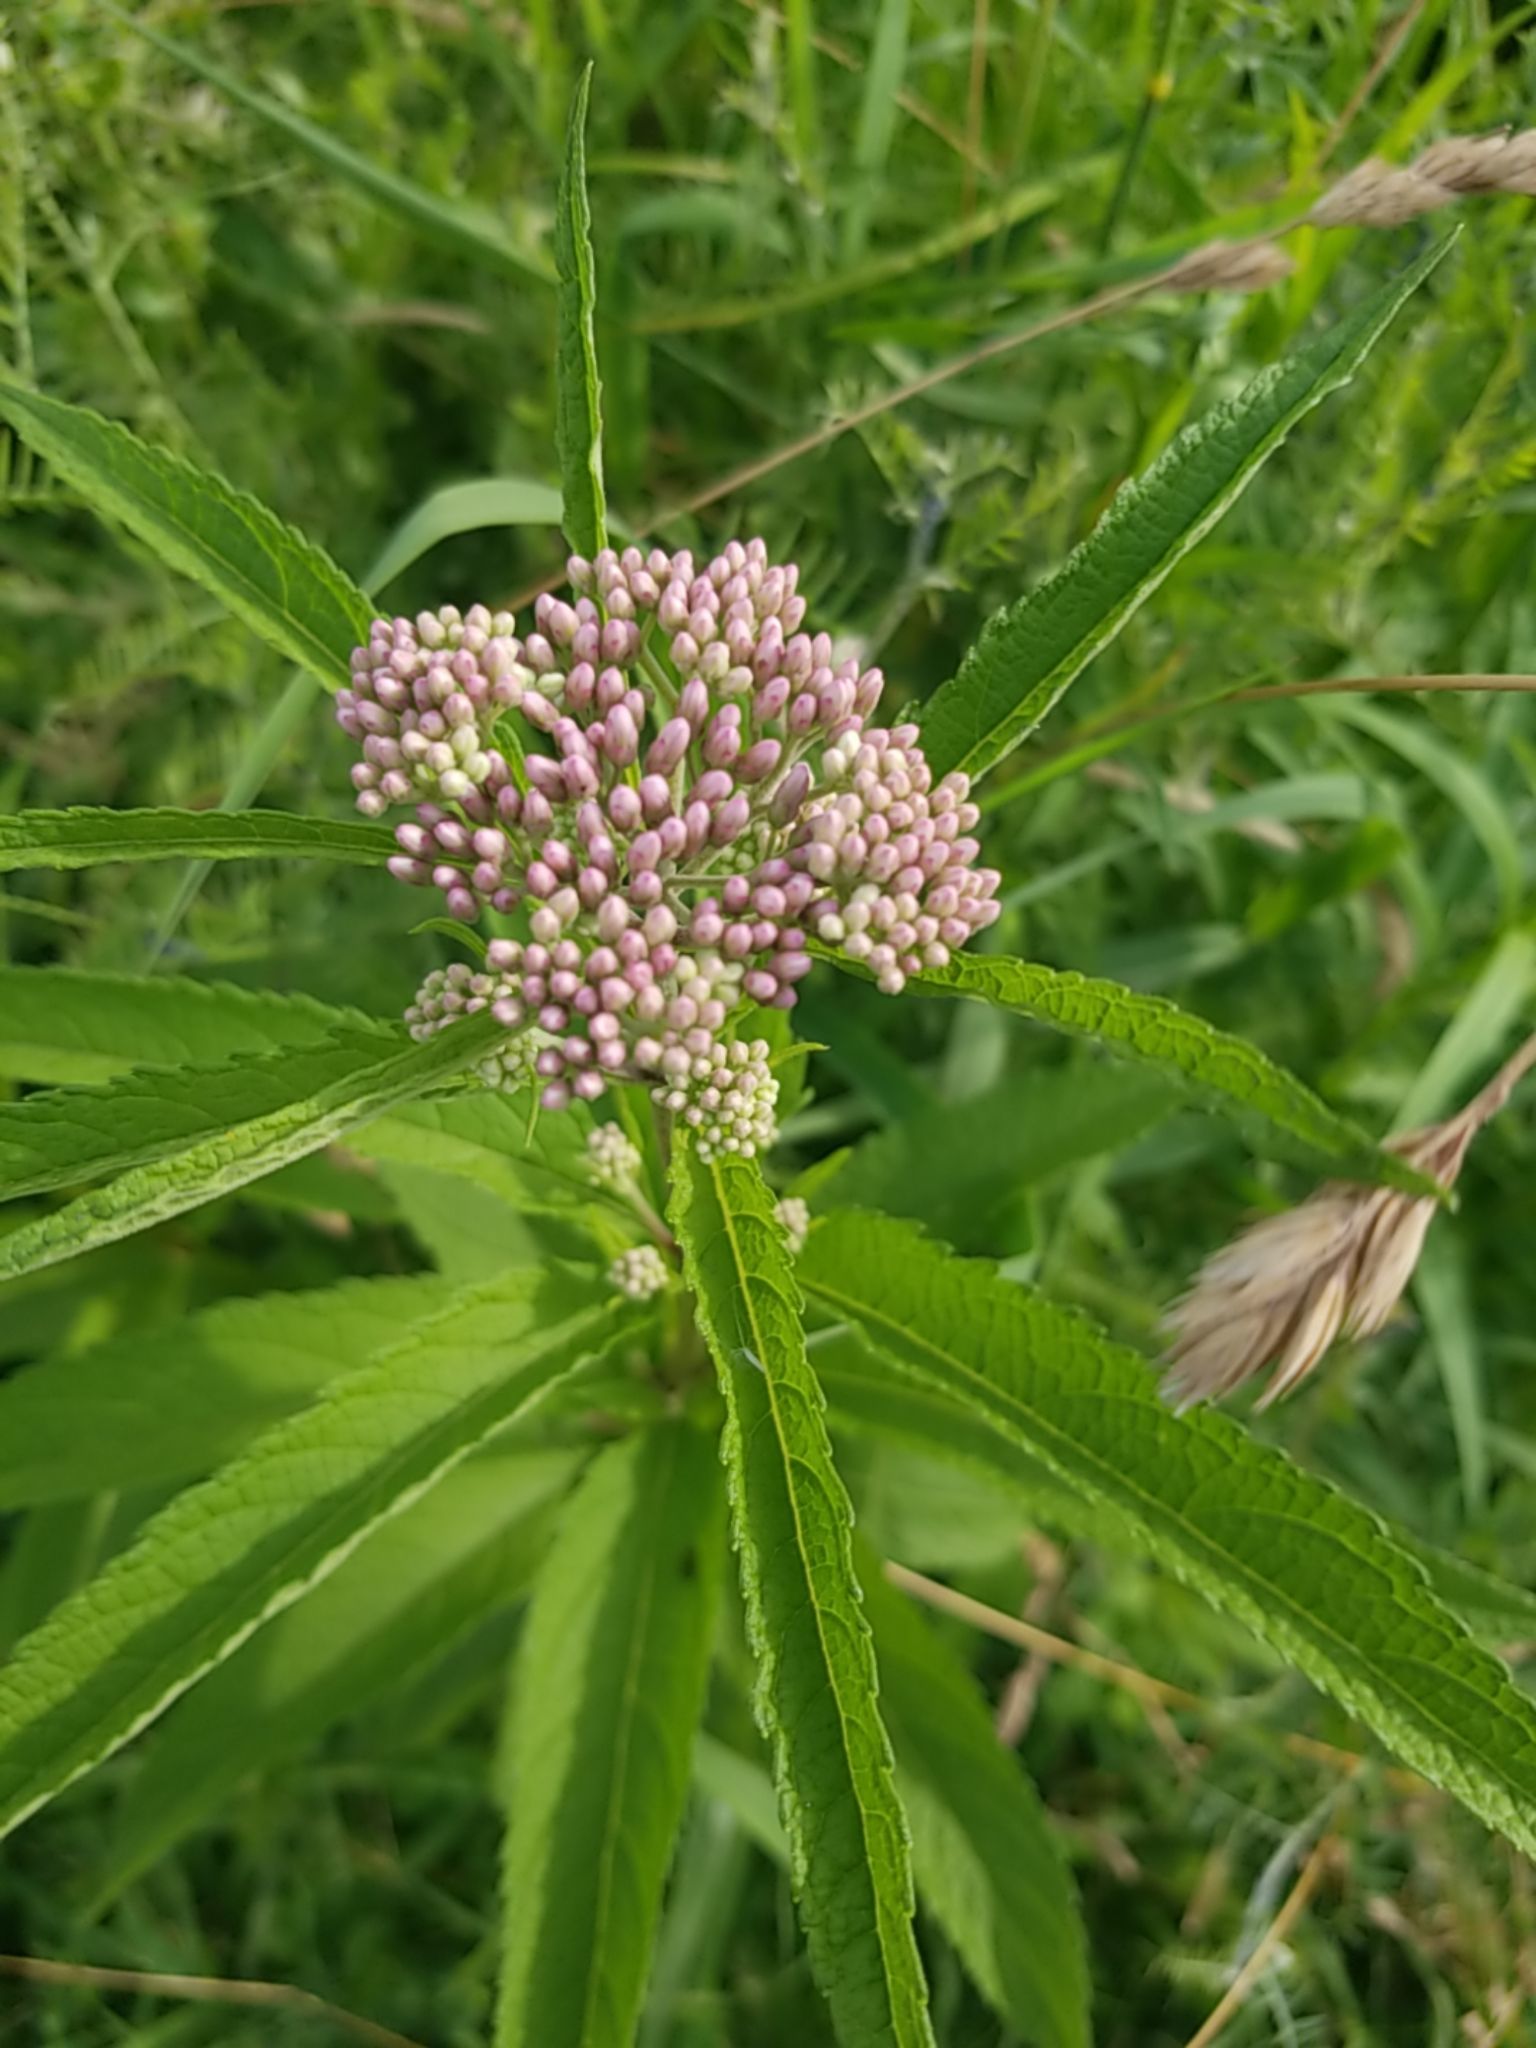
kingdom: Plantae
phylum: Tracheophyta
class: Magnoliopsida
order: Asterales
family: Asteraceae
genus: Eutrochium
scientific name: Eutrochium maculatum
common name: Spotted joe pye weed
